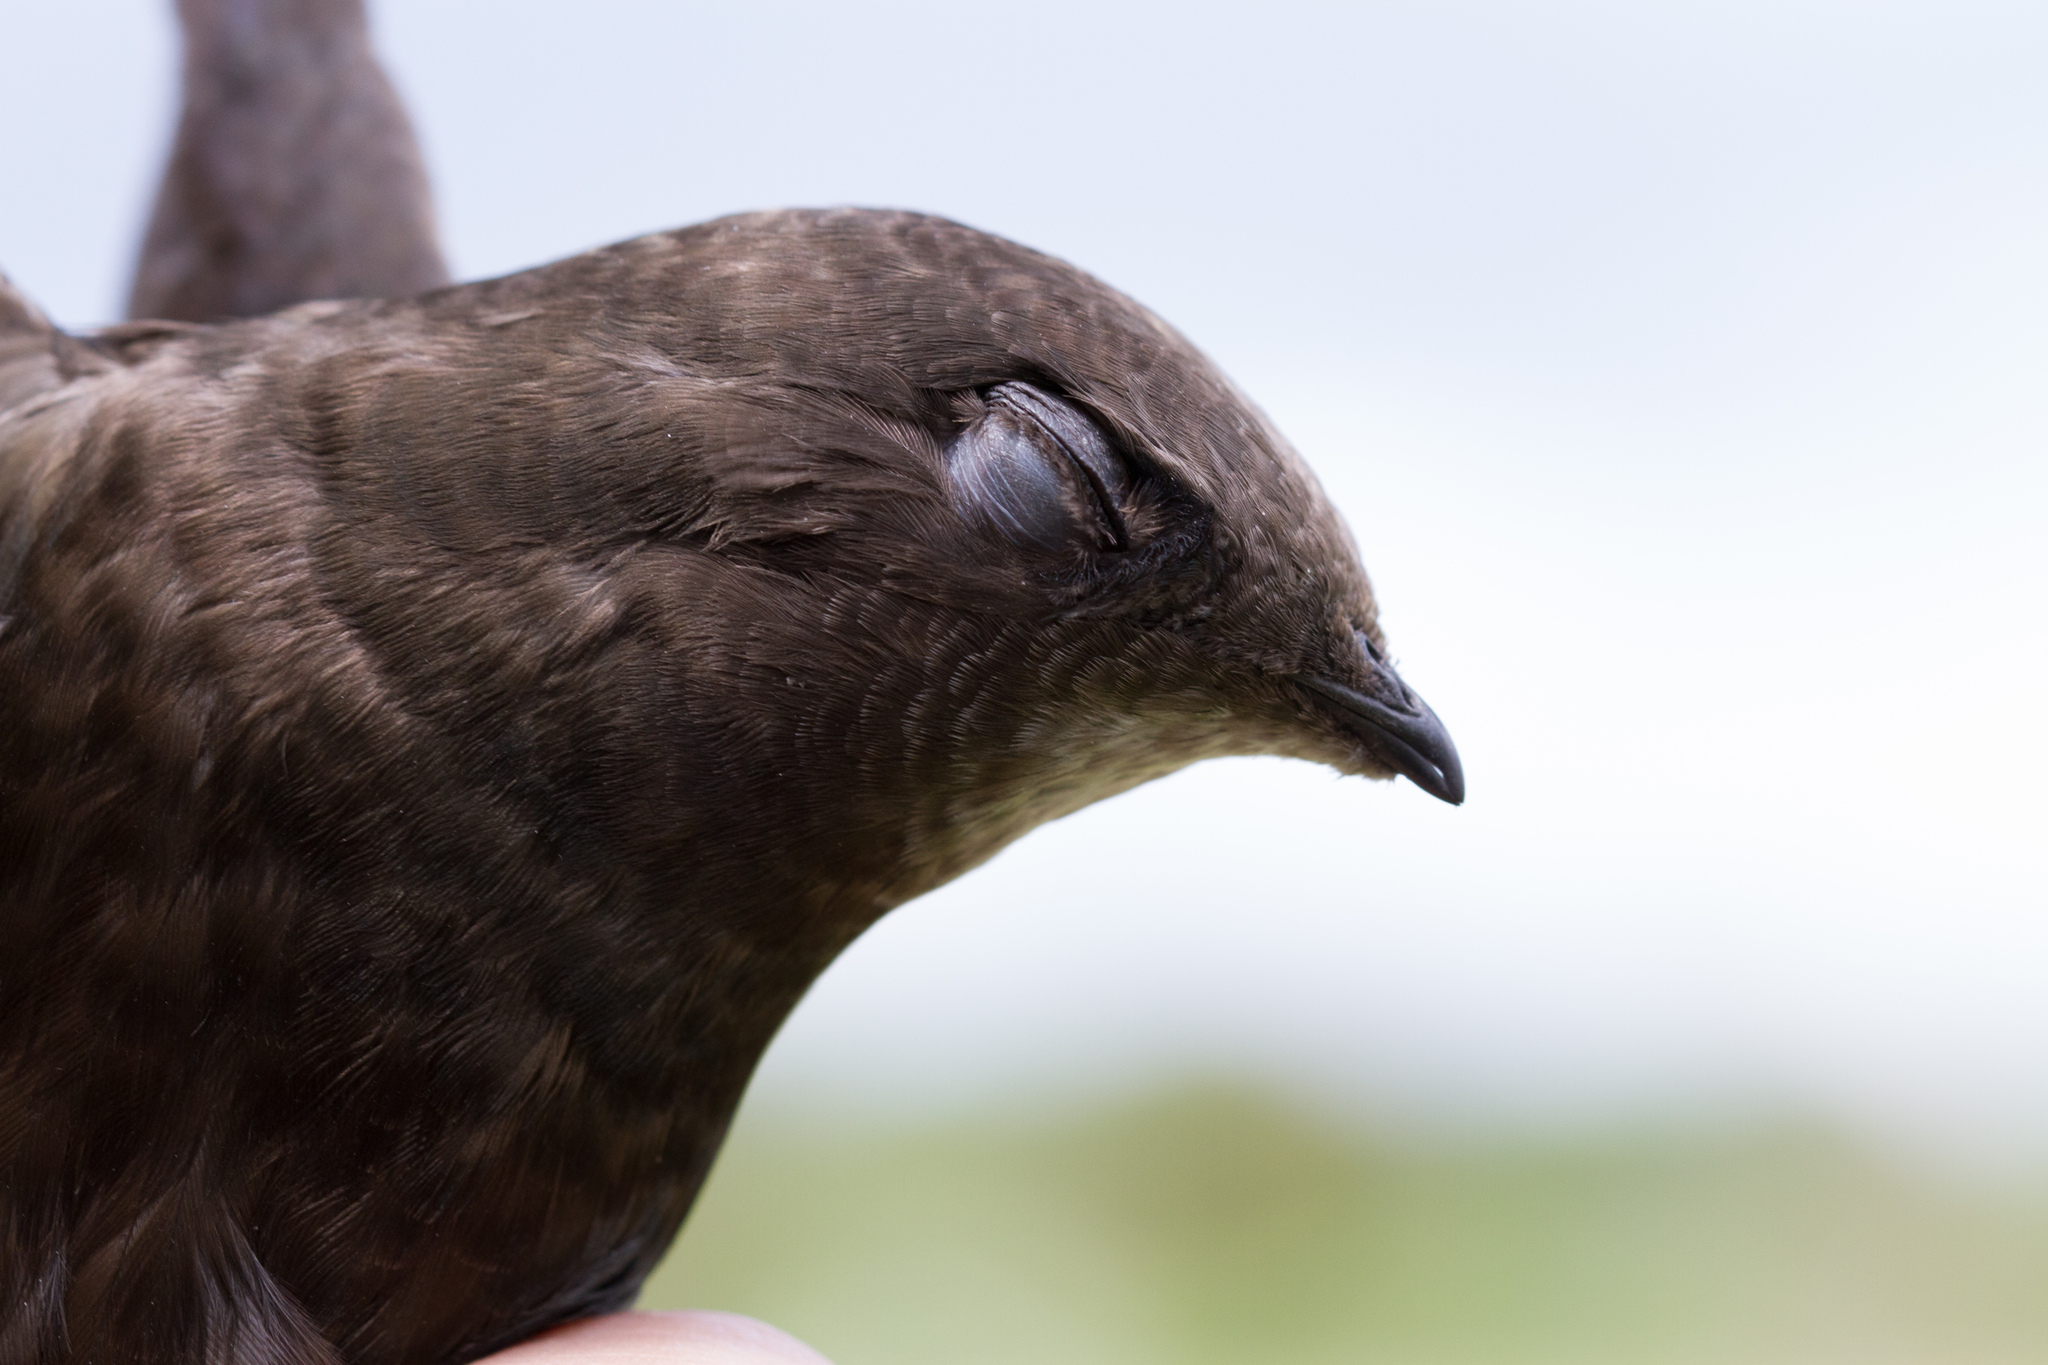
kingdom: Animalia
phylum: Chordata
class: Aves
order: Apodiformes
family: Apodidae
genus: Apus
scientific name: Apus apus
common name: Common swift
